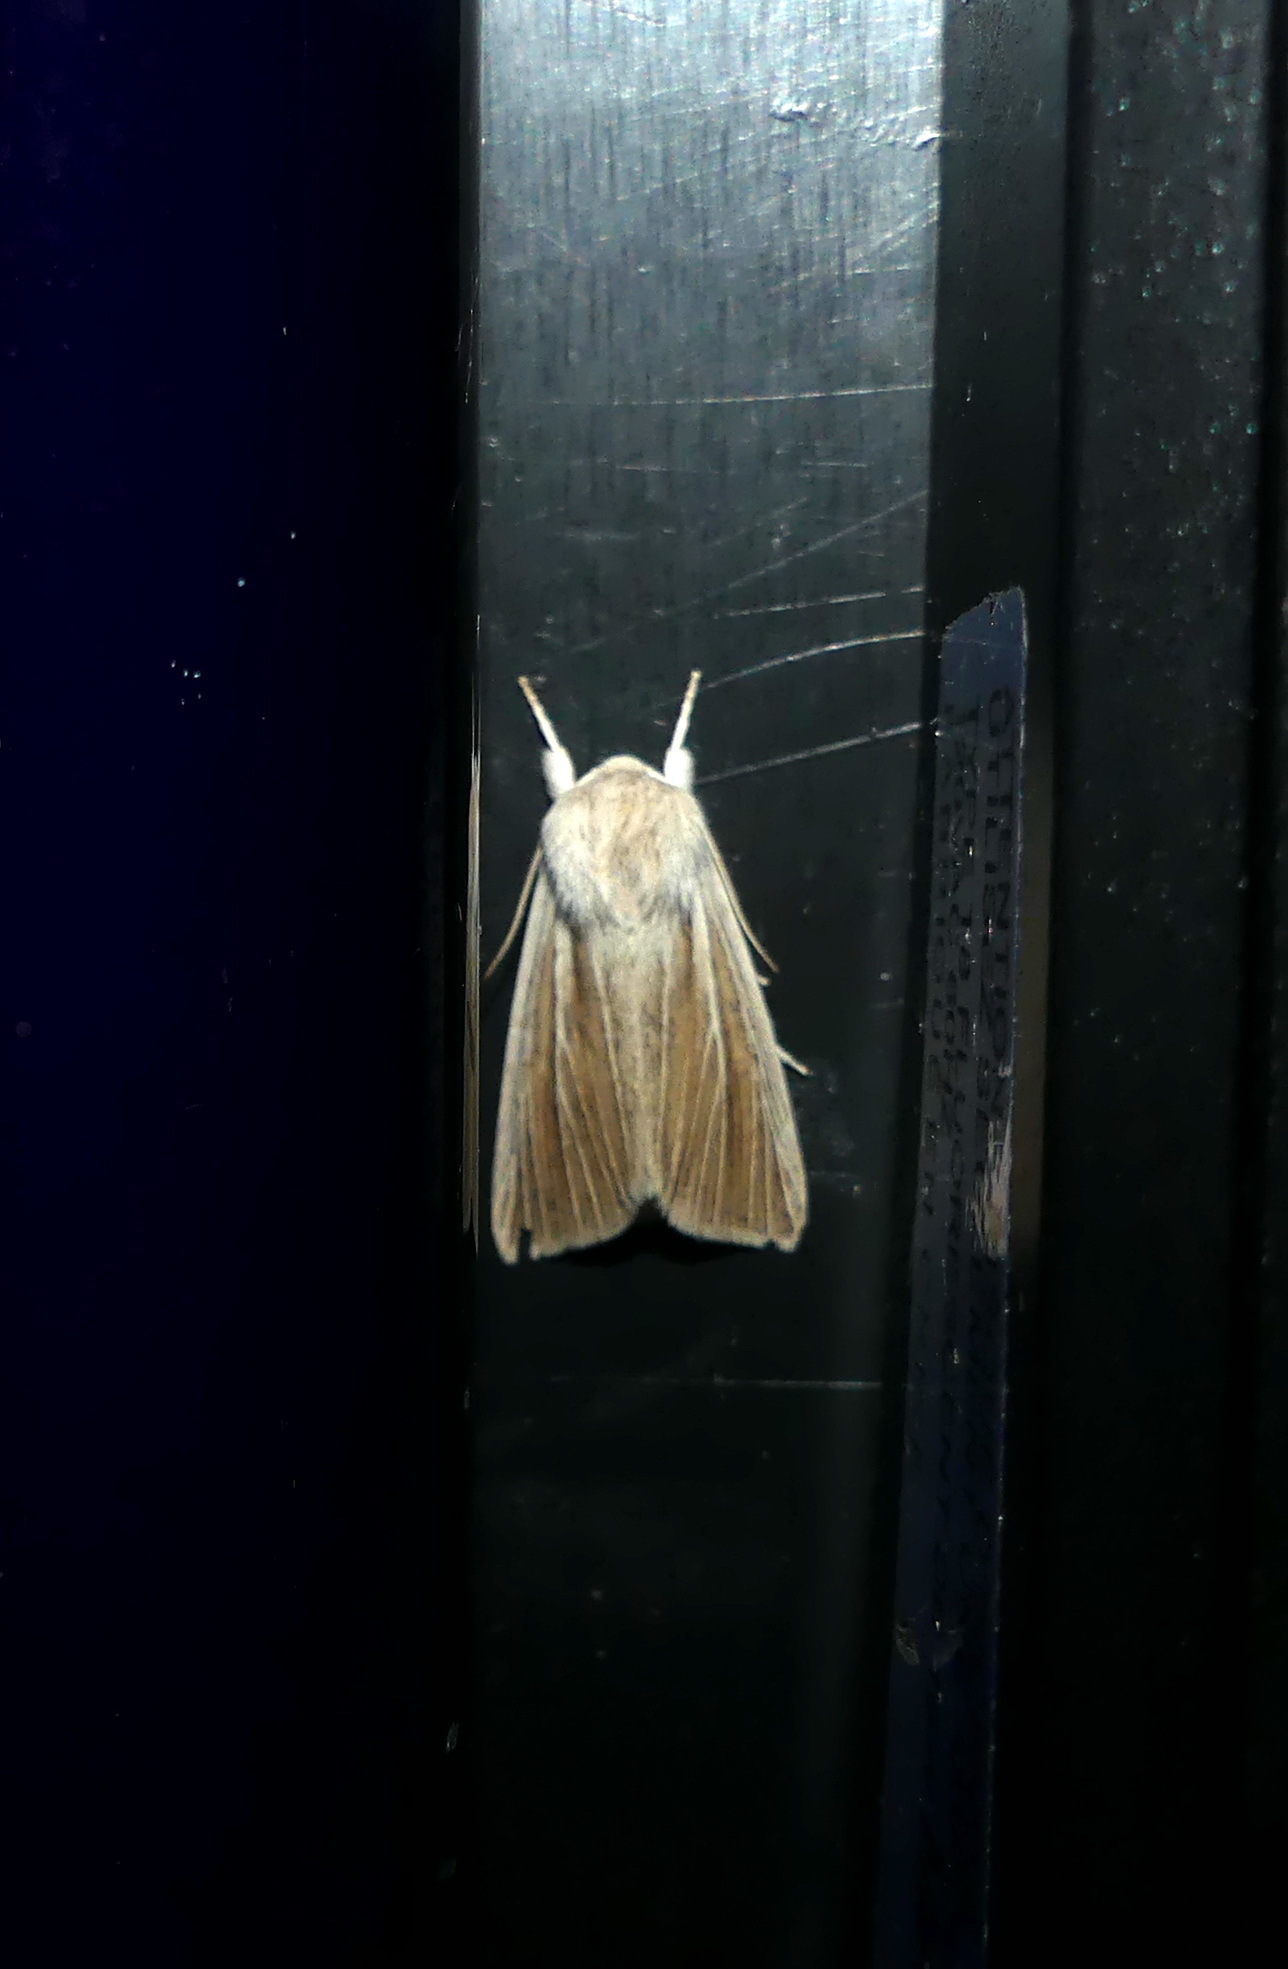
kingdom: Animalia
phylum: Arthropoda
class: Insecta
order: Lepidoptera
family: Noctuidae
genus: Acronicta
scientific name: Acronicta insularis
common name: Henry's marsh moth
